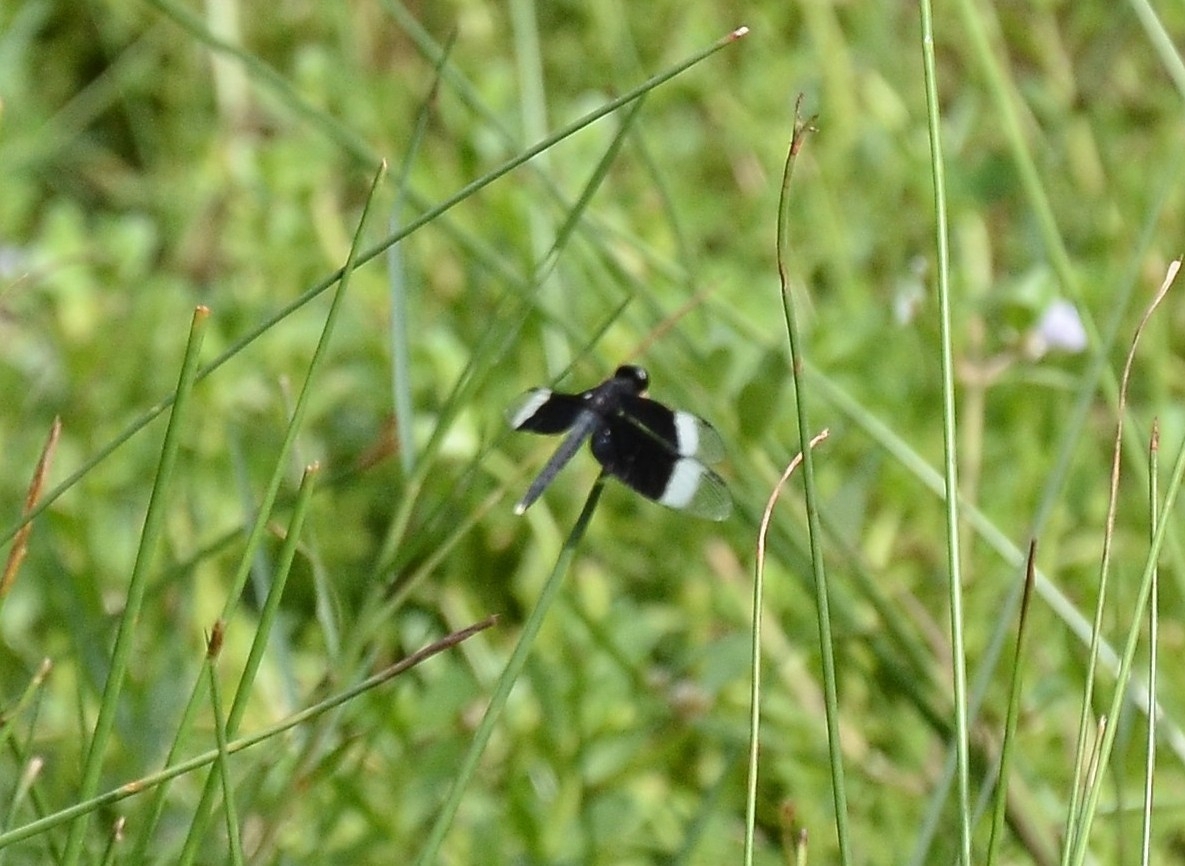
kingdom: Animalia
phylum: Arthropoda
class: Insecta
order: Odonata
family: Libellulidae
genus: Neurothemis
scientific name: Neurothemis tullia
